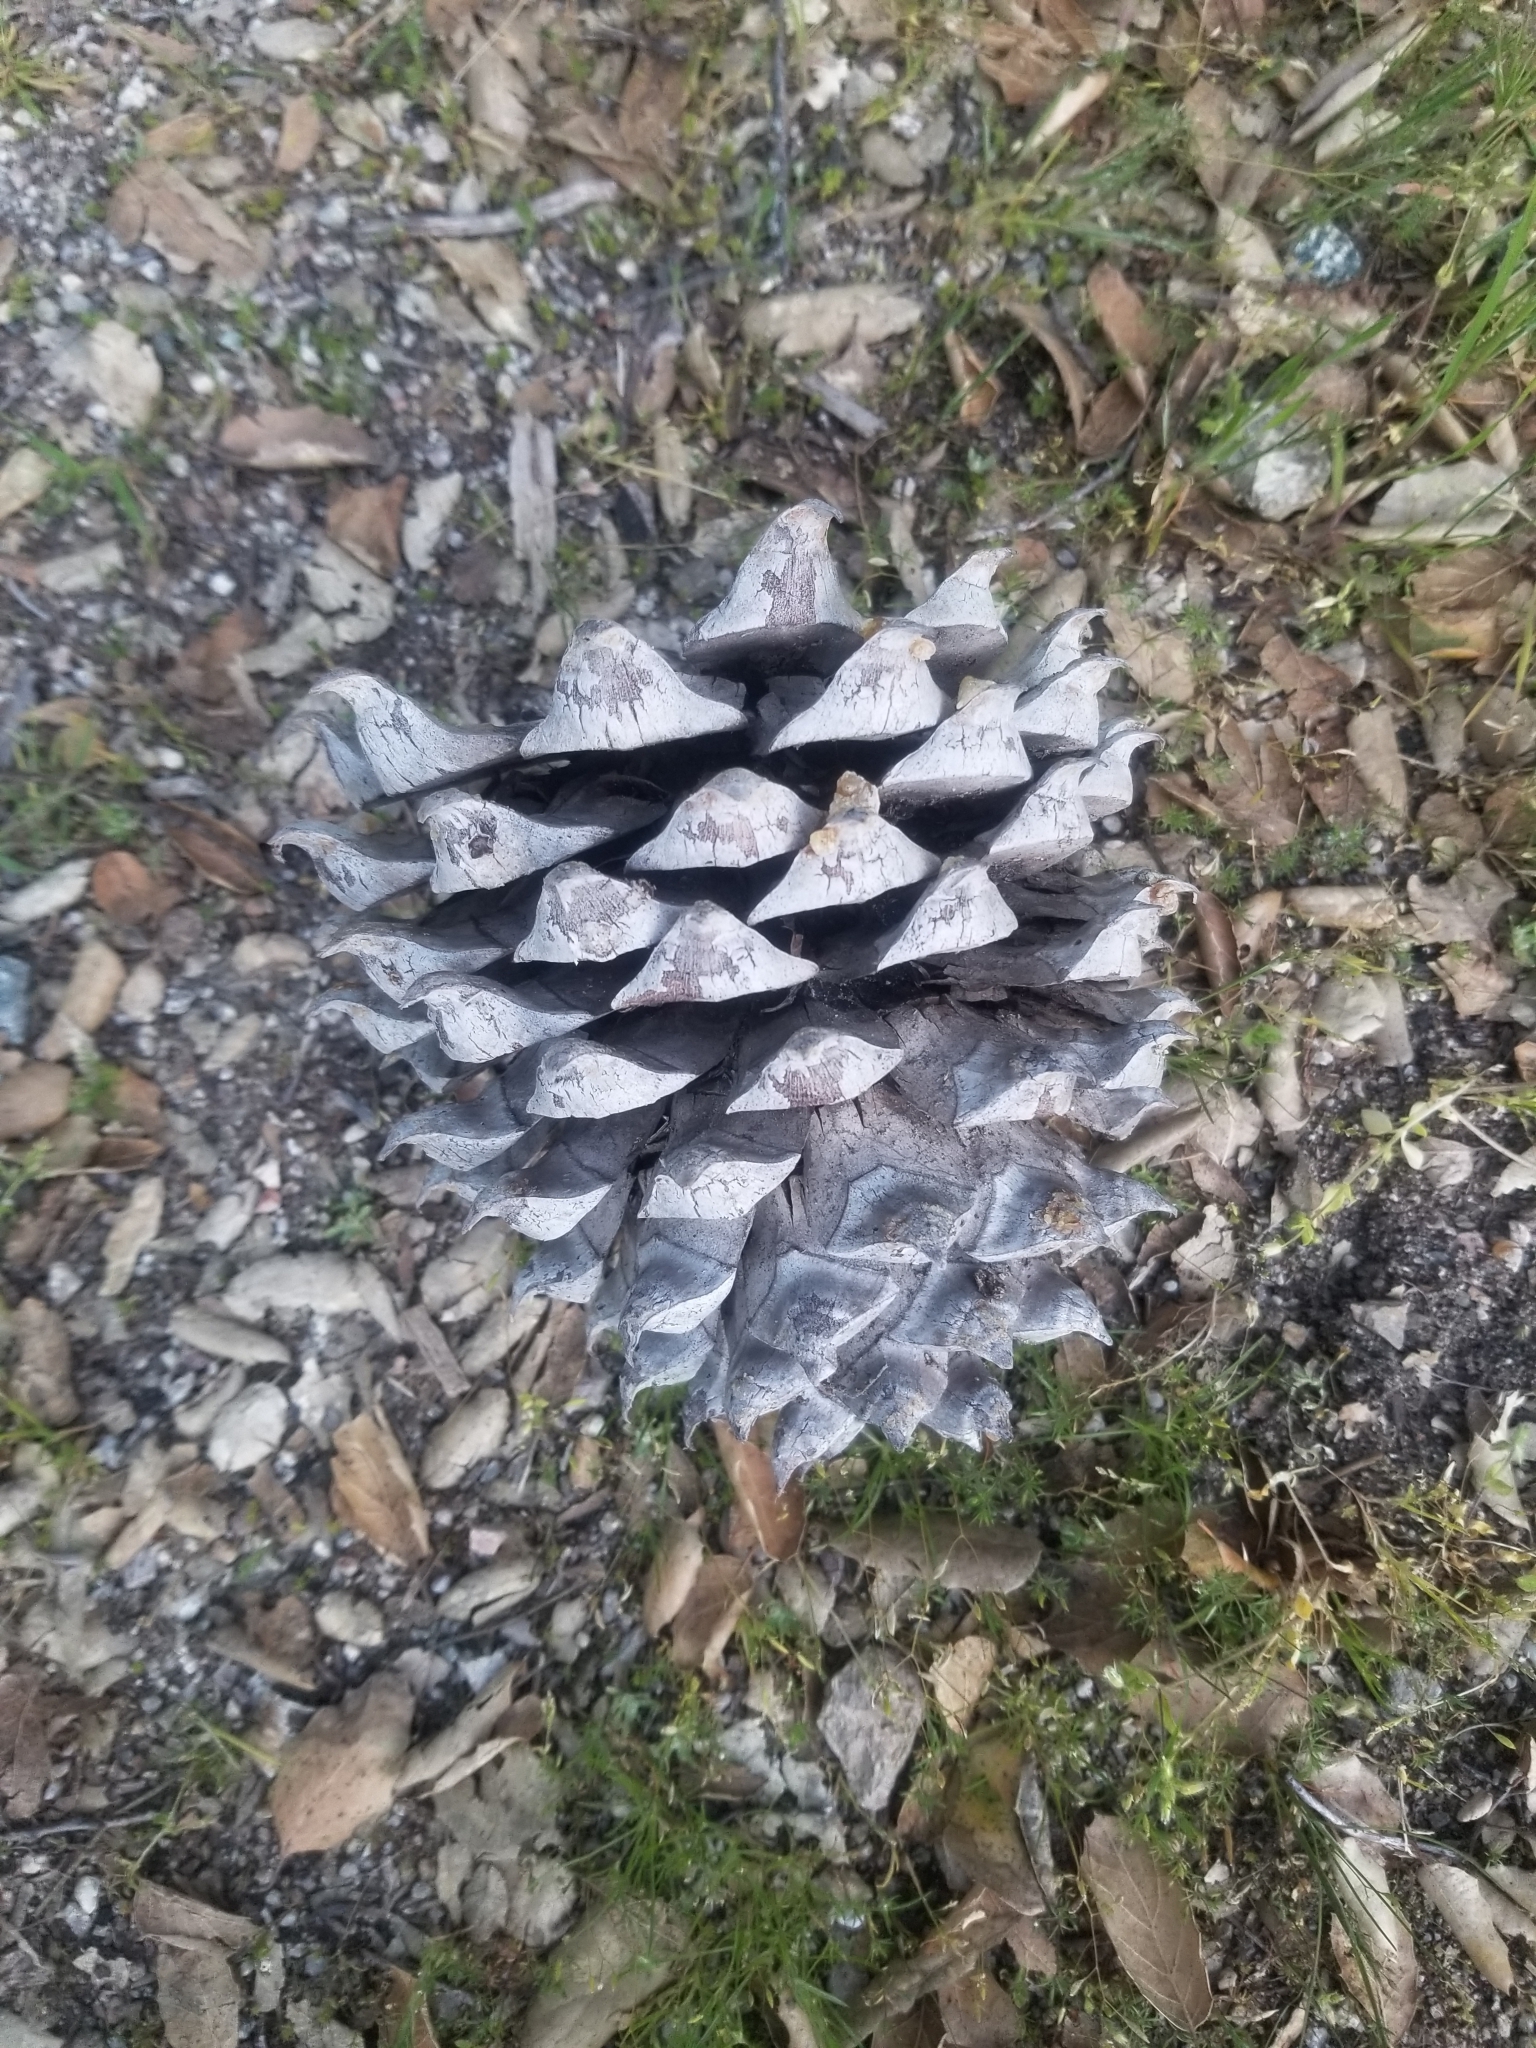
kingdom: Plantae
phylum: Tracheophyta
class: Pinopsida
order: Pinales
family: Pinaceae
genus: Pinus
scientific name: Pinus sabiniana
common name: Bull pine
